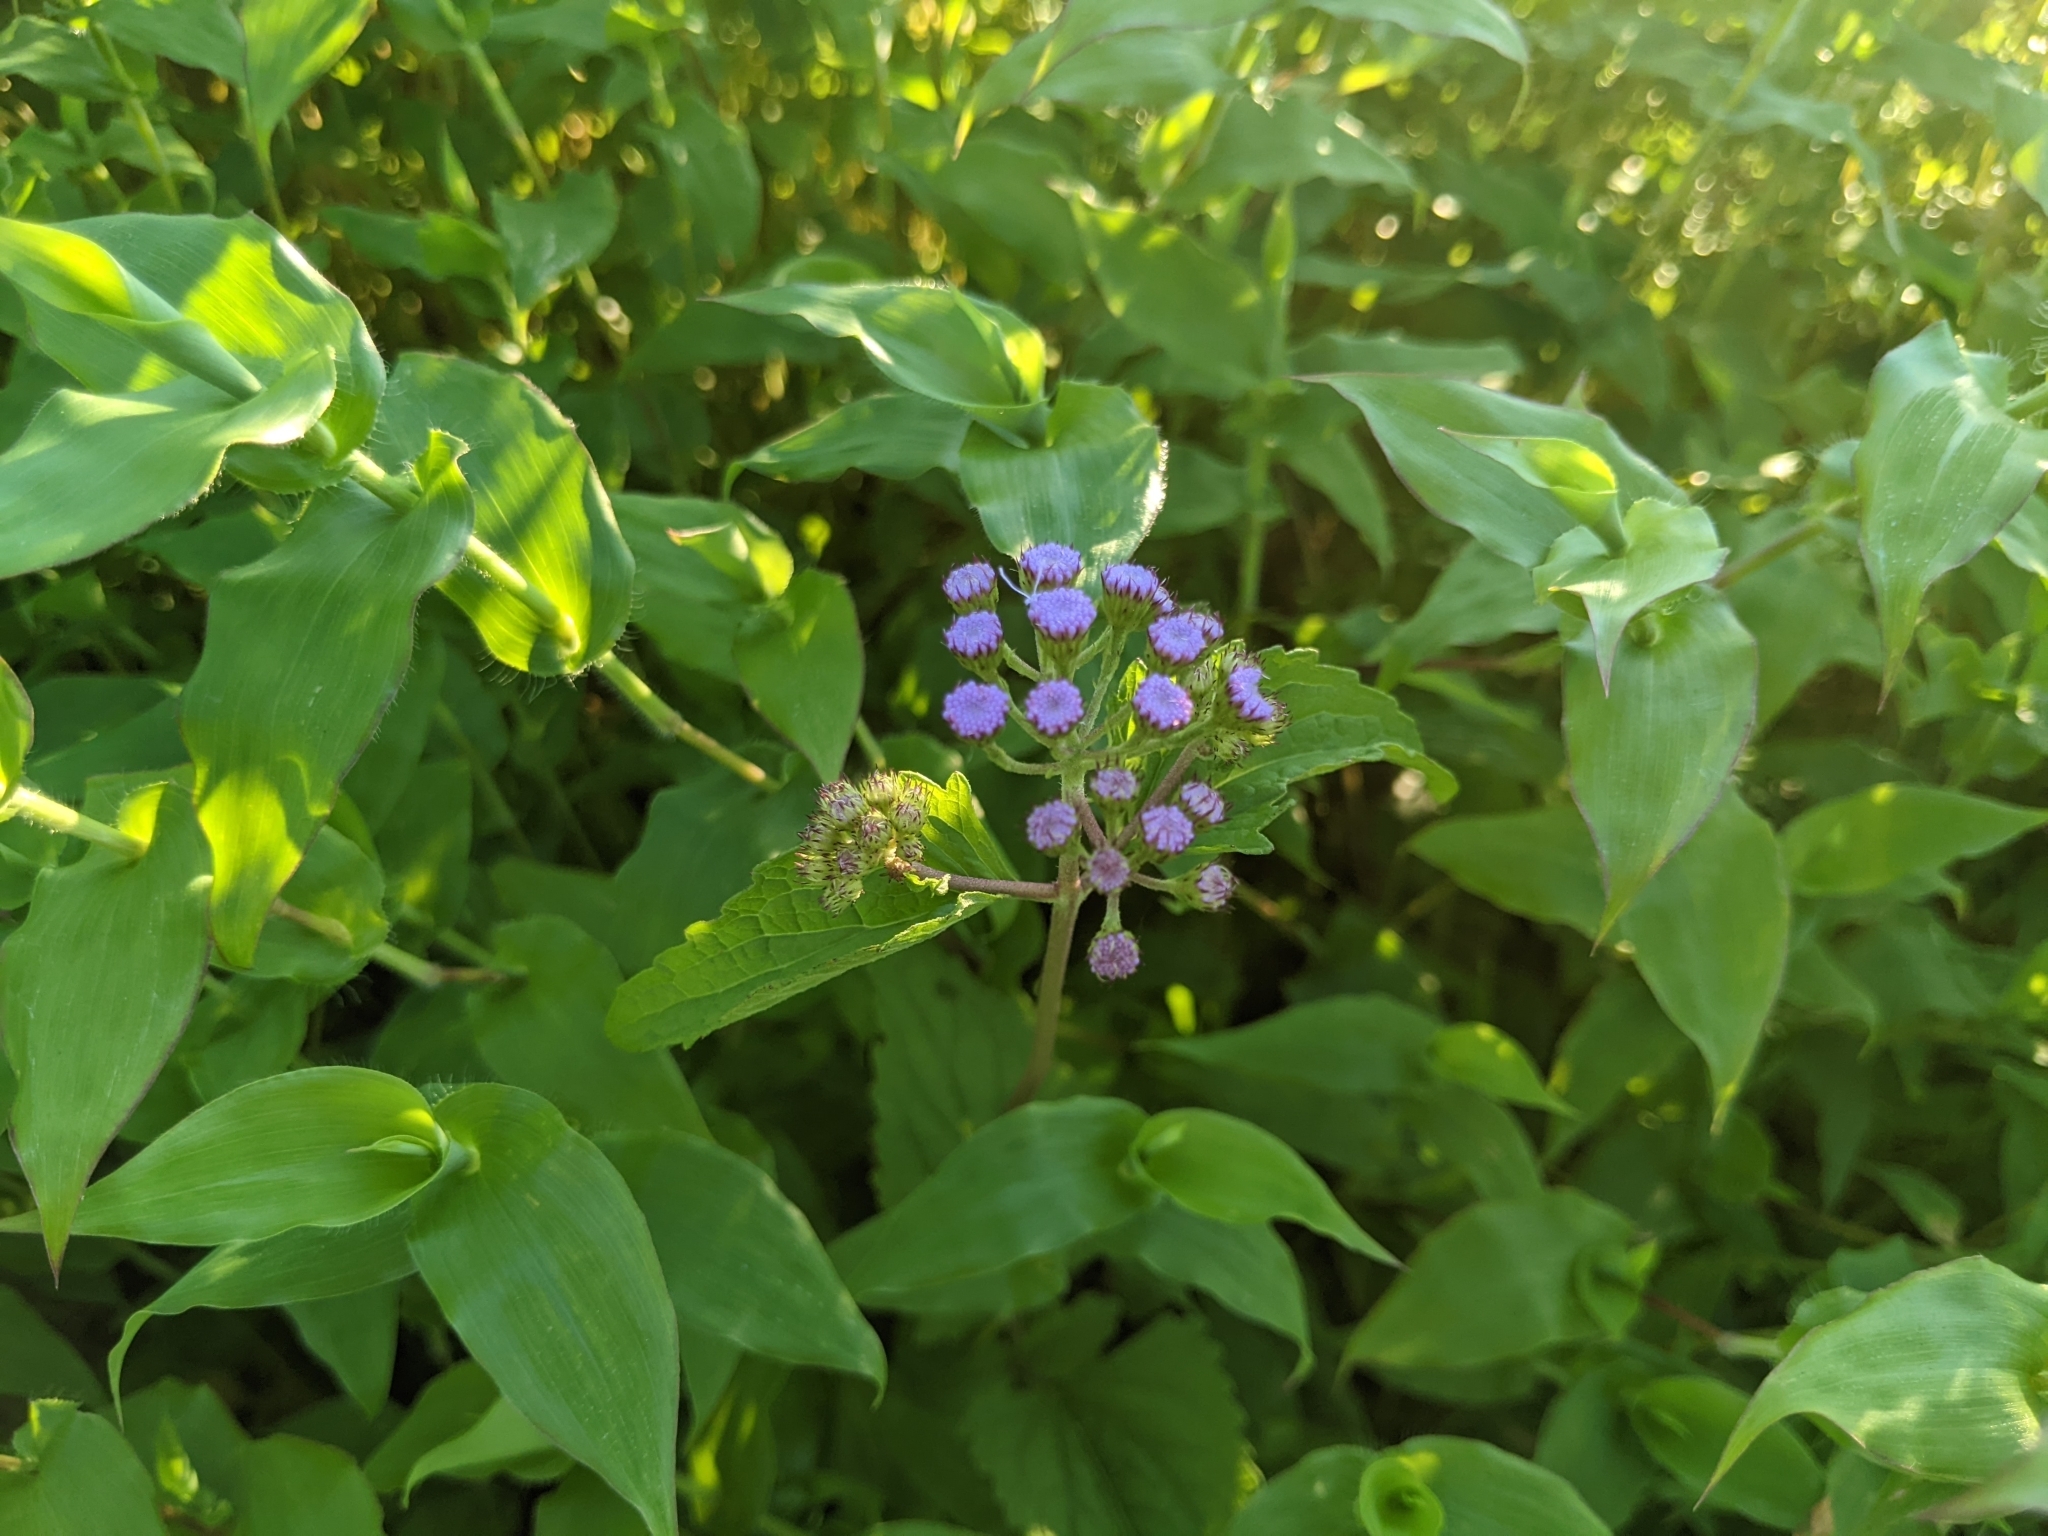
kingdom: Plantae
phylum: Tracheophyta
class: Magnoliopsida
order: Asterales
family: Asteraceae
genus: Conoclinium
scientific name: Conoclinium coelestinum
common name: Blue mistflower
